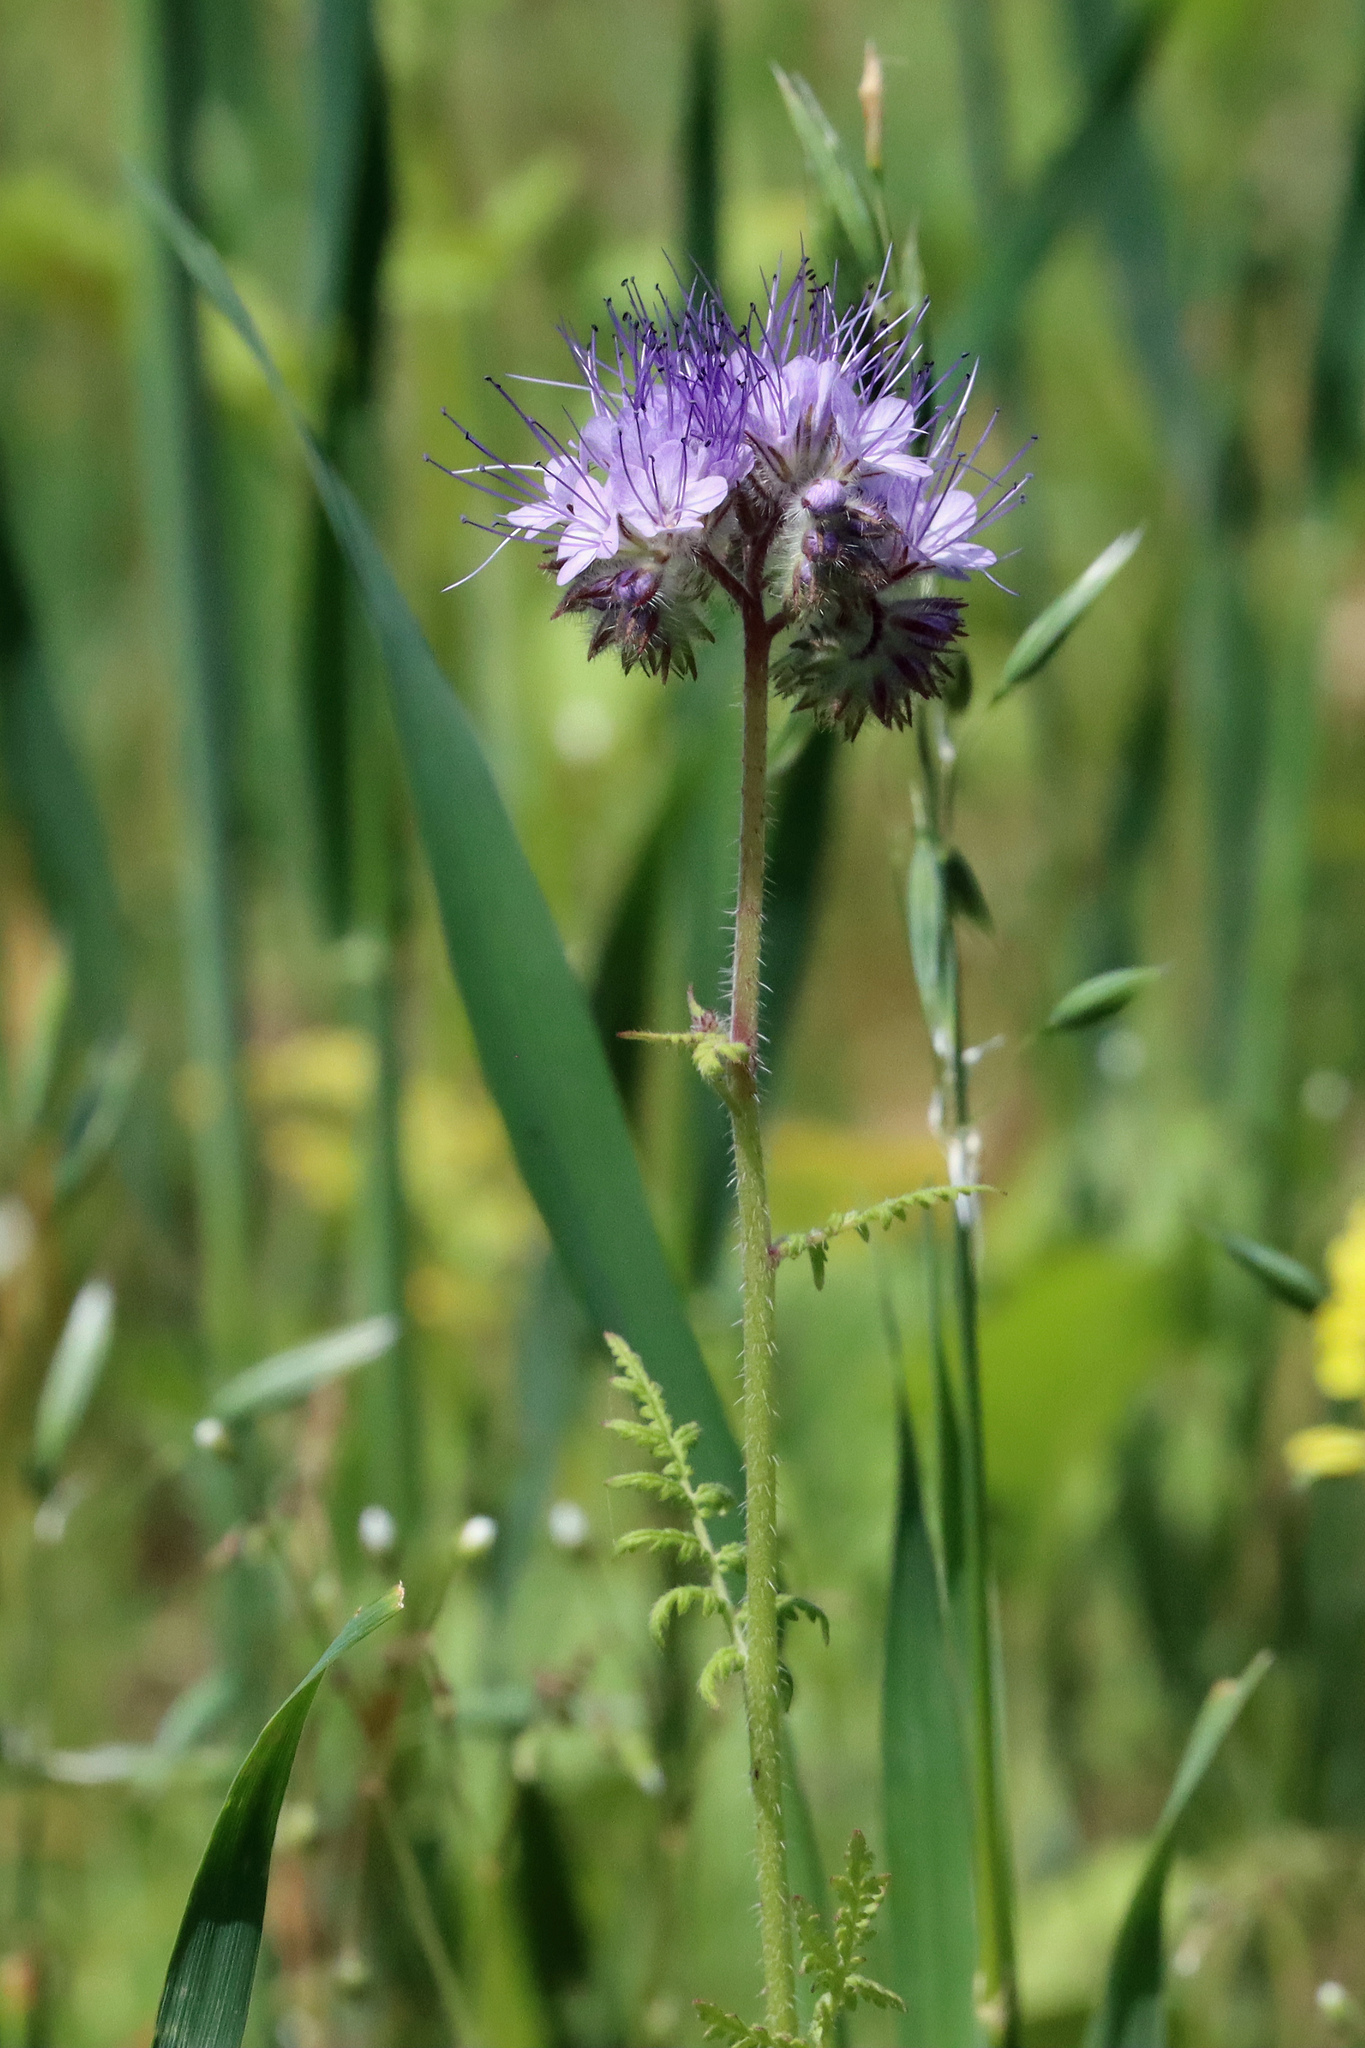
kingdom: Plantae
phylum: Tracheophyta
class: Magnoliopsida
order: Boraginales
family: Hydrophyllaceae
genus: Phacelia
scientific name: Phacelia tanacetifolia
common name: Phacelia
